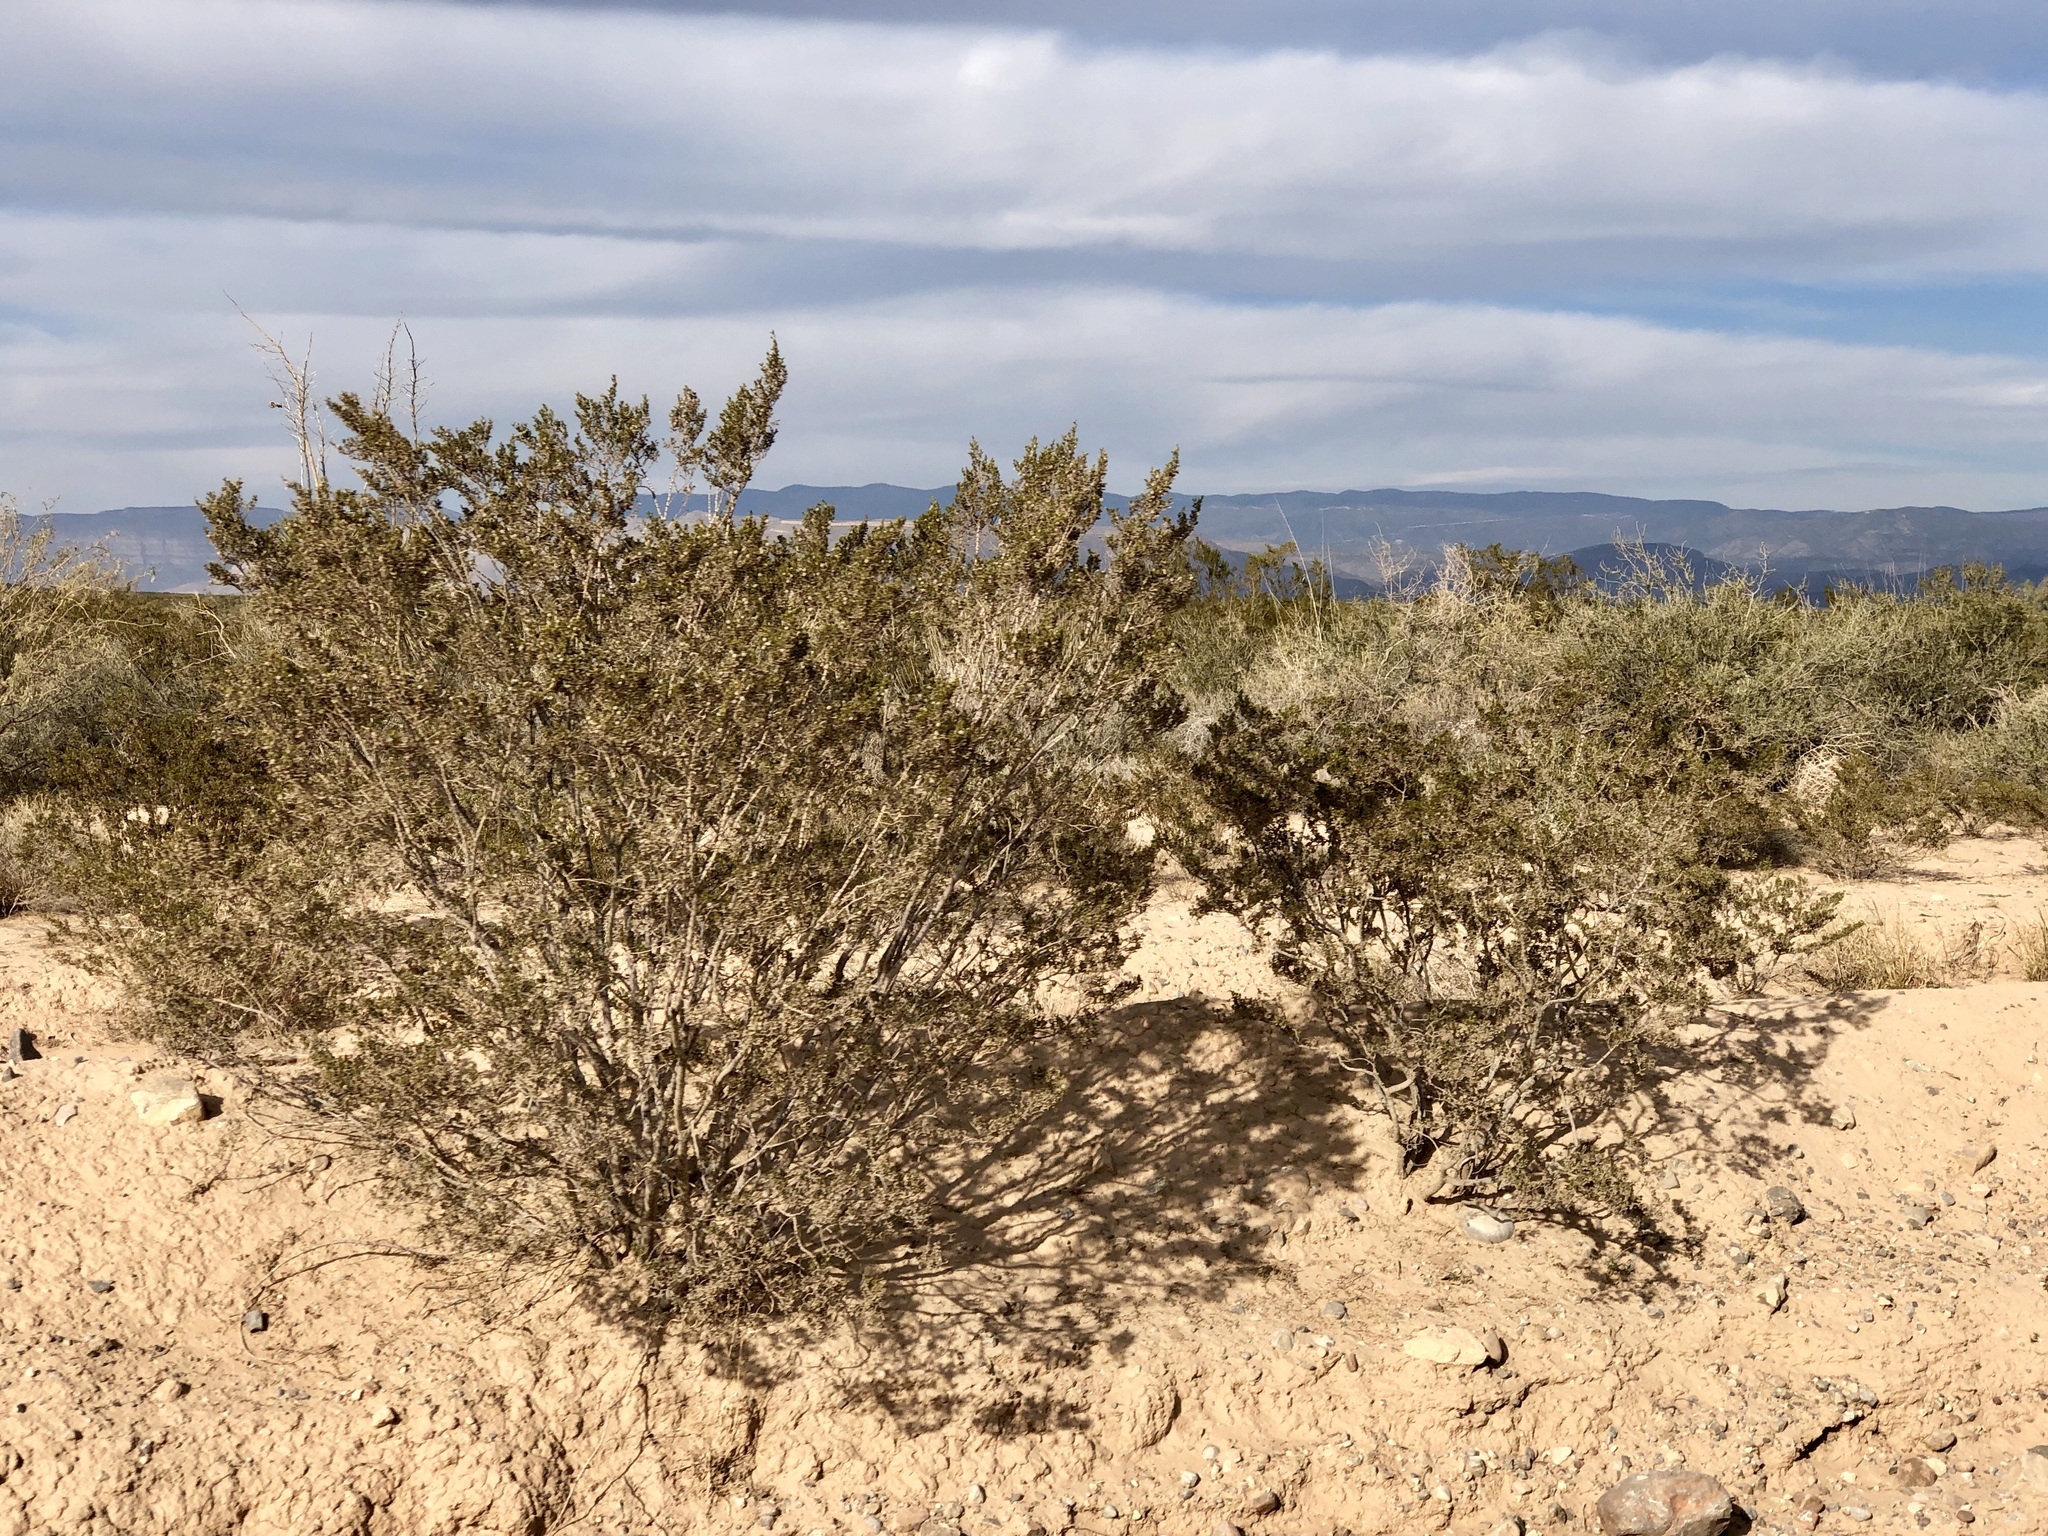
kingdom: Plantae
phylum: Tracheophyta
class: Magnoliopsida
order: Zygophyllales
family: Zygophyllaceae
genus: Larrea
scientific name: Larrea tridentata
